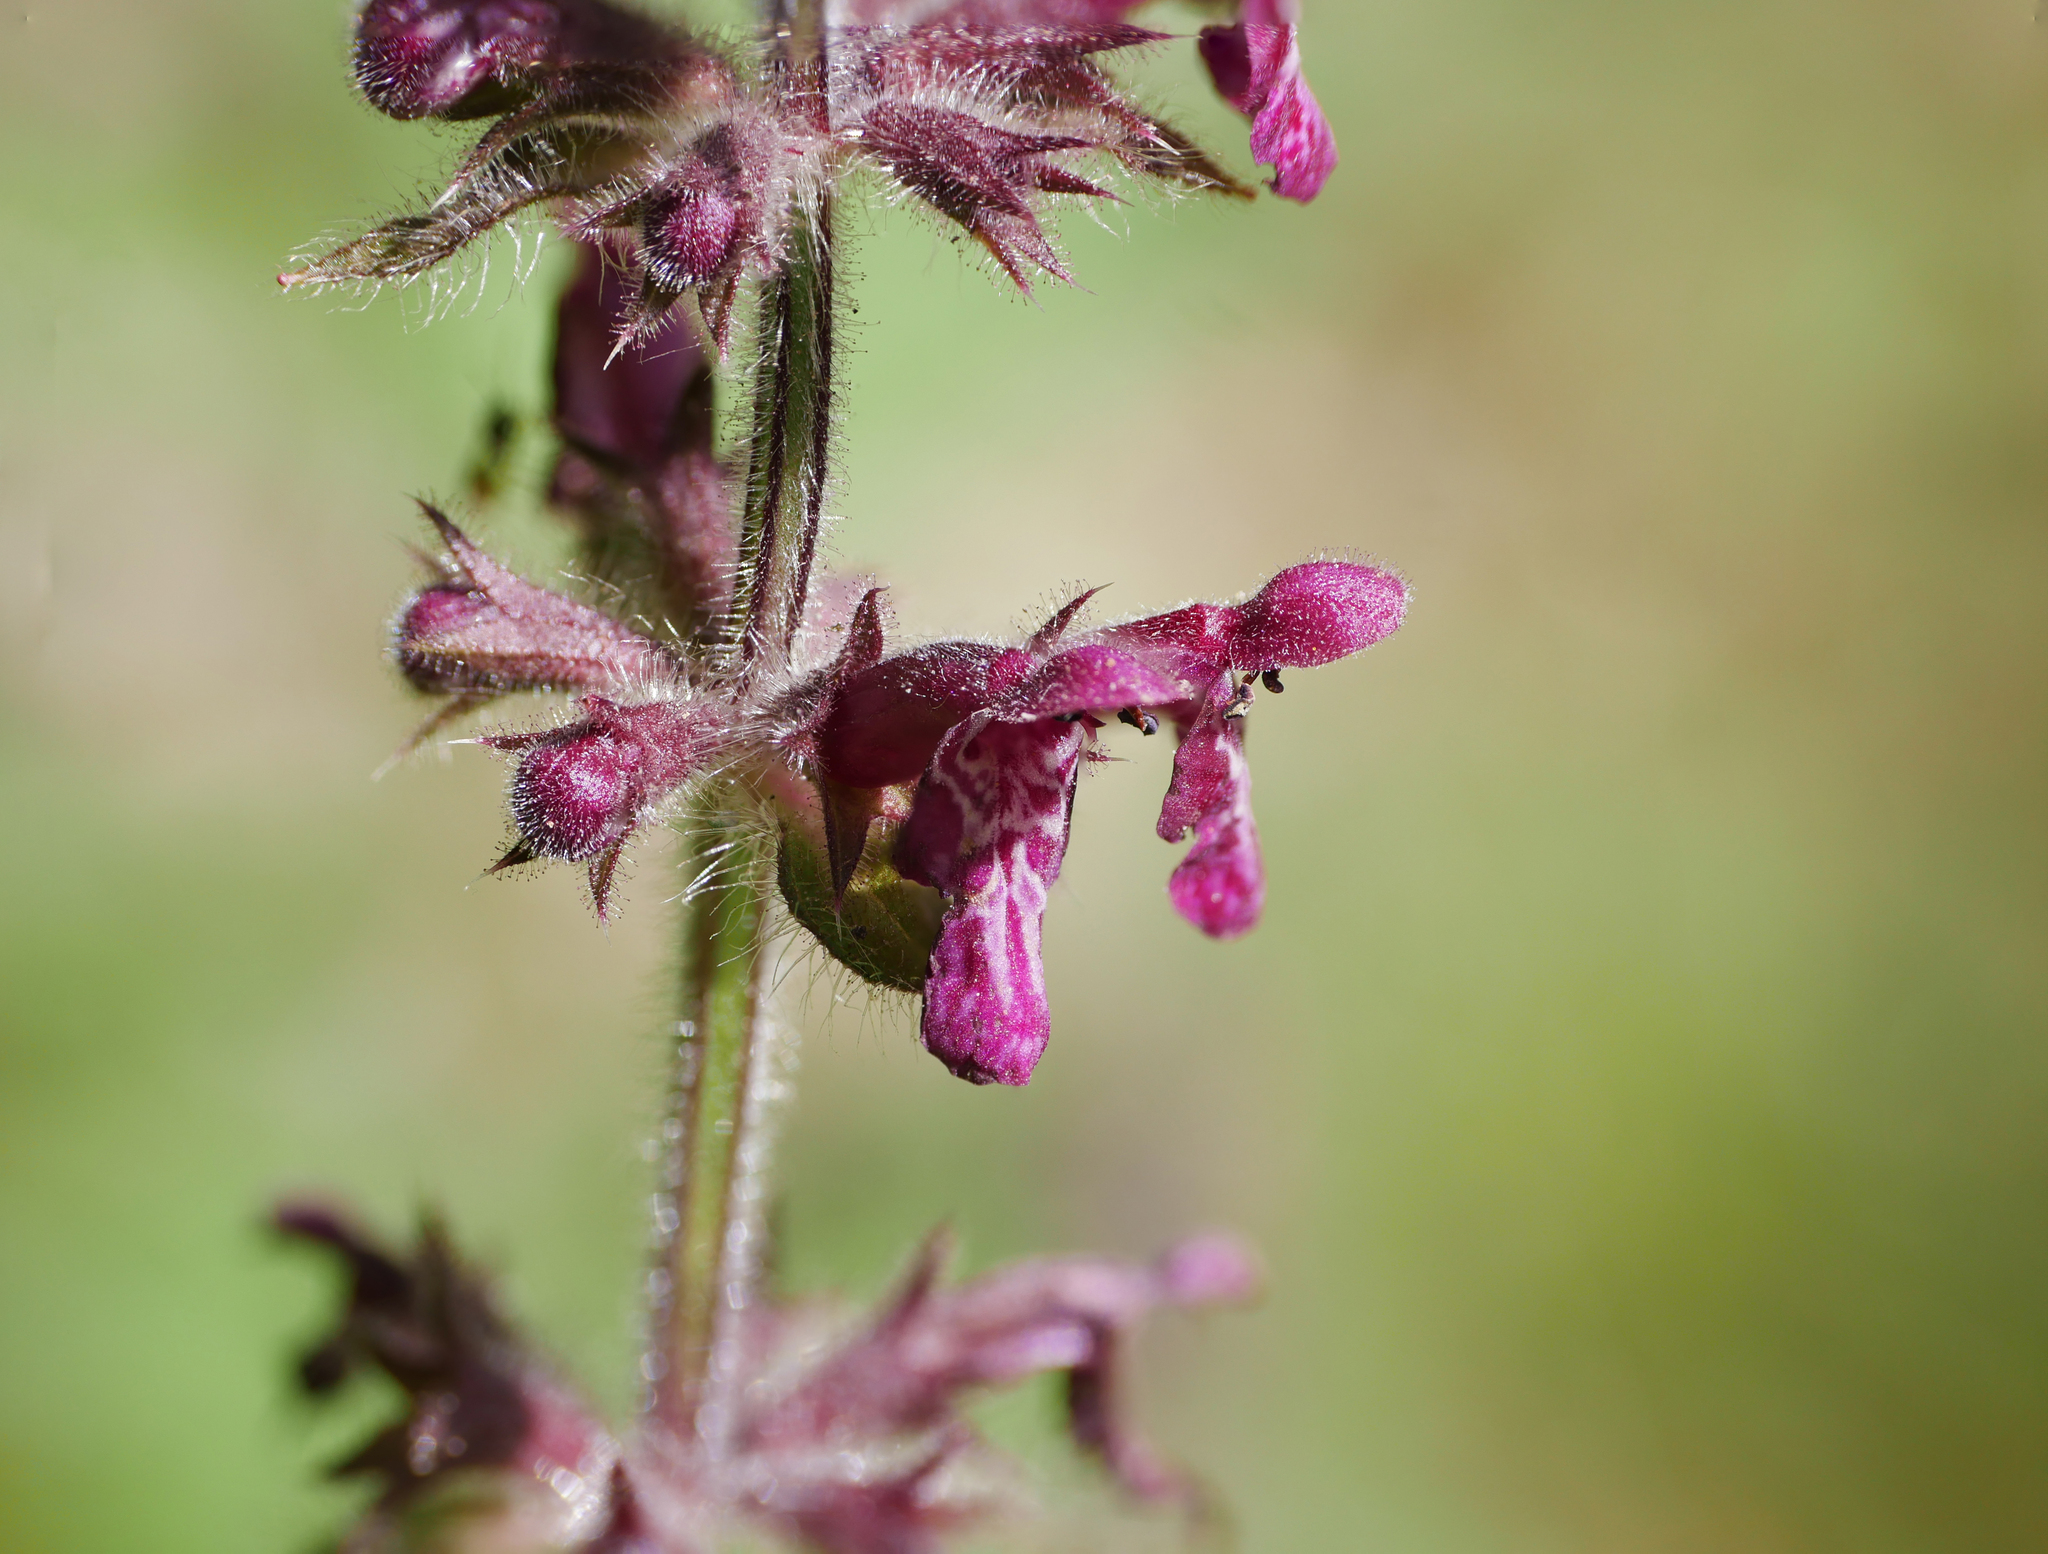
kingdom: Plantae
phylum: Tracheophyta
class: Magnoliopsida
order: Lamiales
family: Lamiaceae
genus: Stachys
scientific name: Stachys sylvatica
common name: Hedge woundwort
